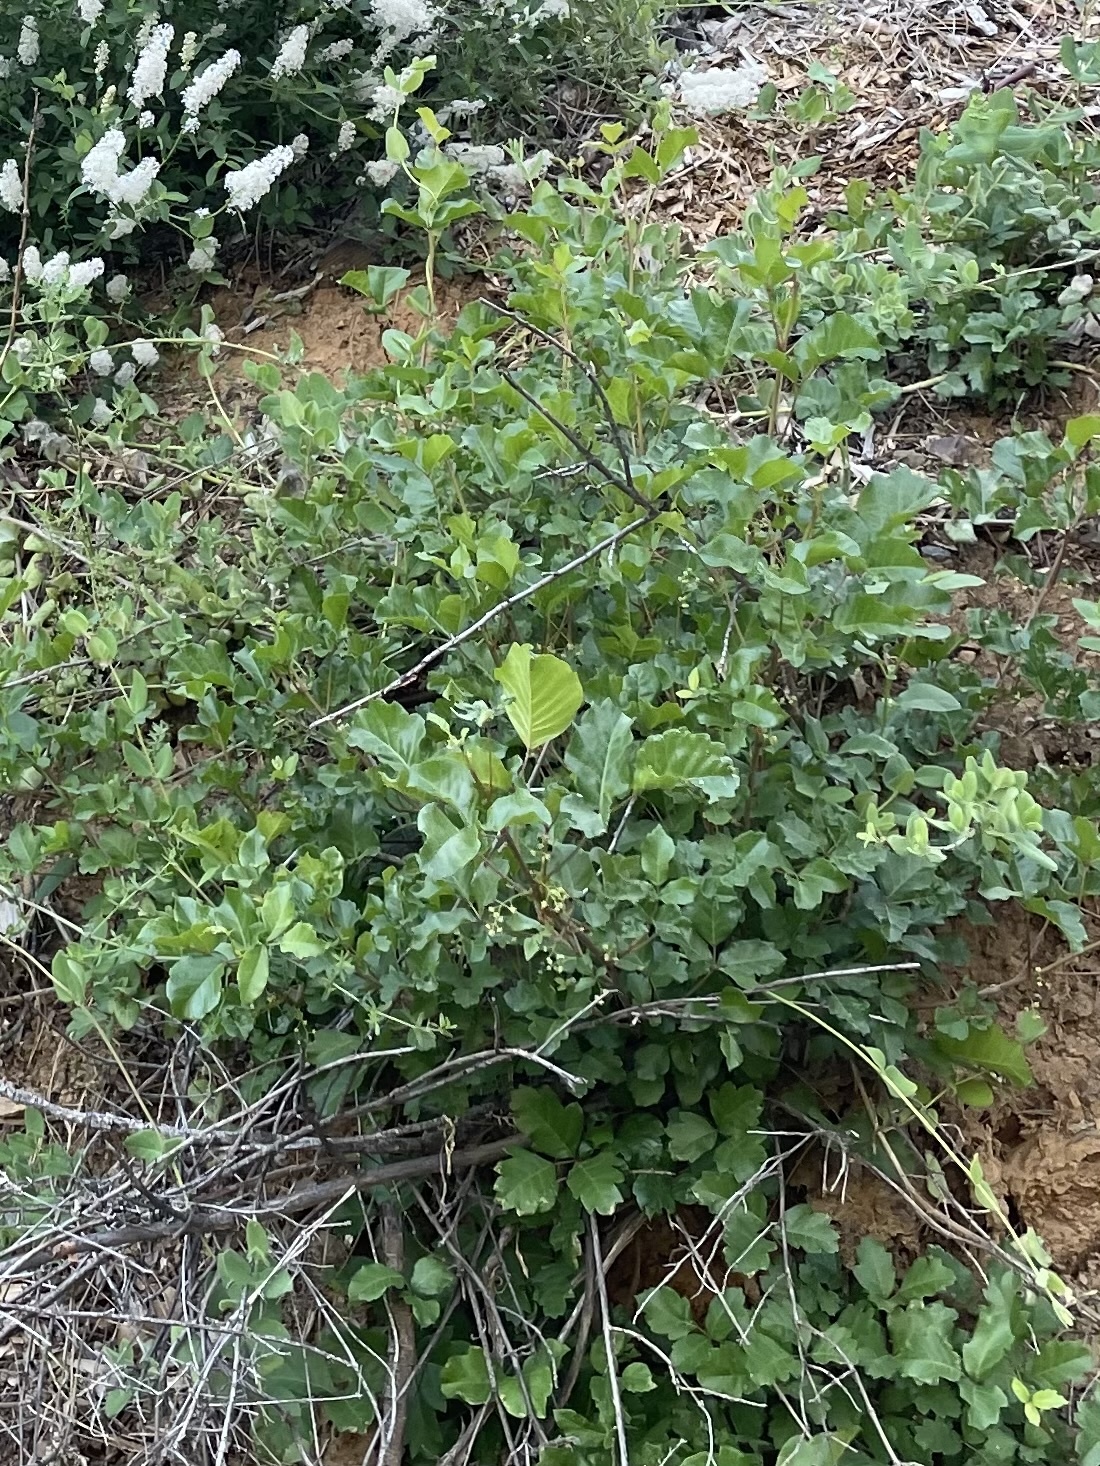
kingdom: Plantae
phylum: Tracheophyta
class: Magnoliopsida
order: Sapindales
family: Anacardiaceae
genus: Toxicodendron
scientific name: Toxicodendron diversilobum
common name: Pacific poison-oak
